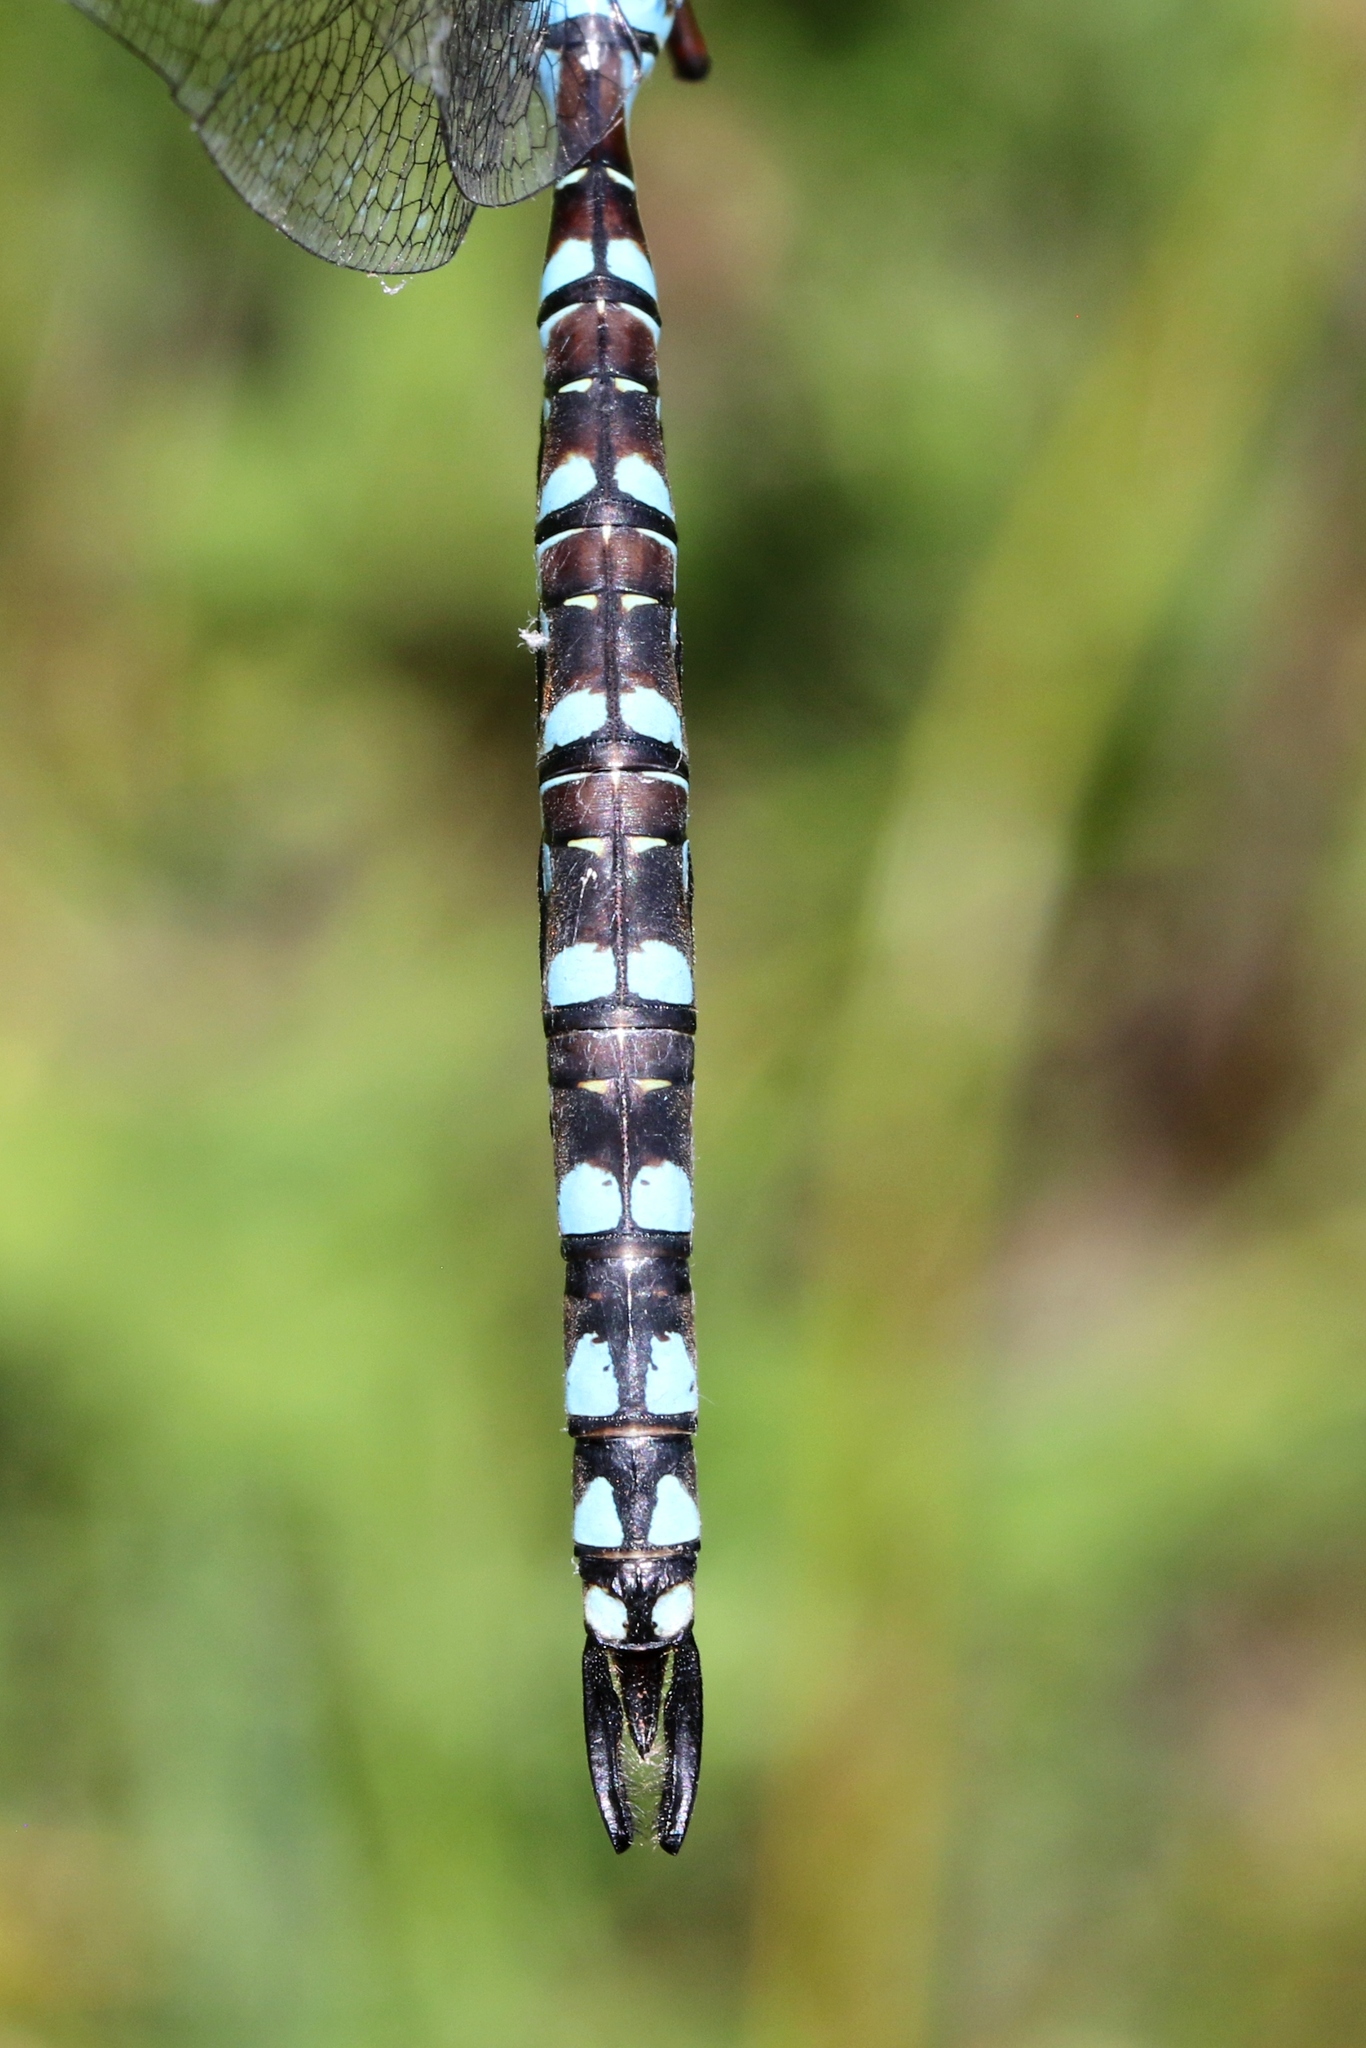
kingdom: Animalia
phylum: Arthropoda
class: Insecta
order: Odonata
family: Aeshnidae
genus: Aeshna
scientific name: Aeshna canadensis
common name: Canada darner
